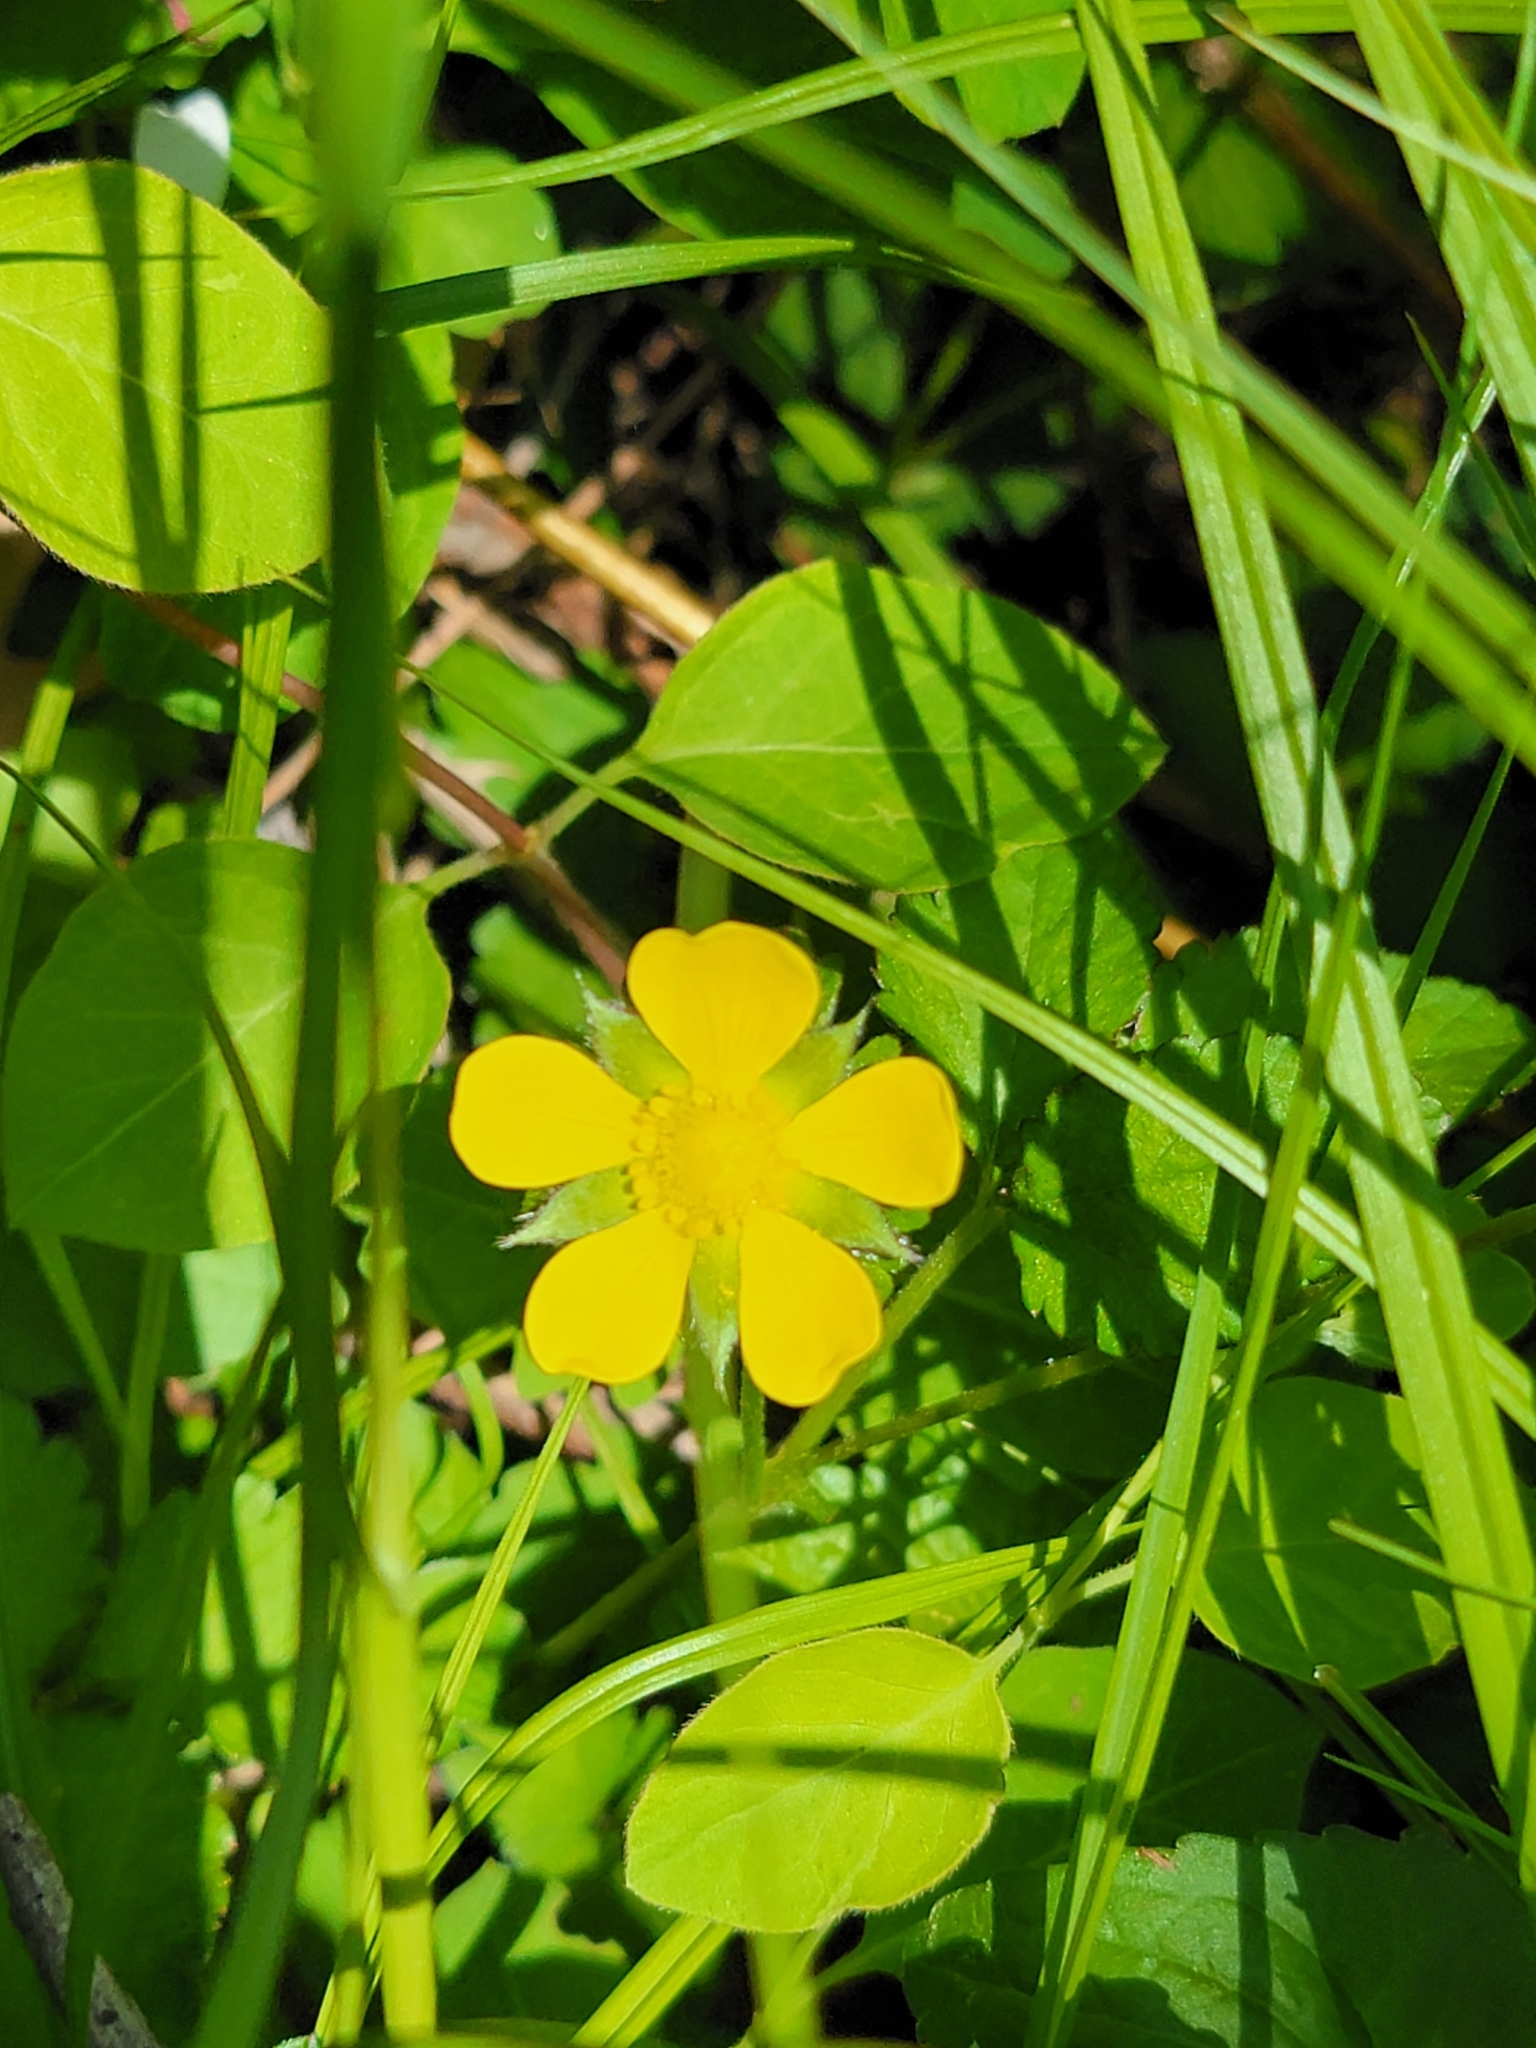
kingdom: Plantae
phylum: Tracheophyta
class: Magnoliopsida
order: Rosales
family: Rosaceae
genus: Potentilla
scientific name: Potentilla indica
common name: Yellow-flowered strawberry
